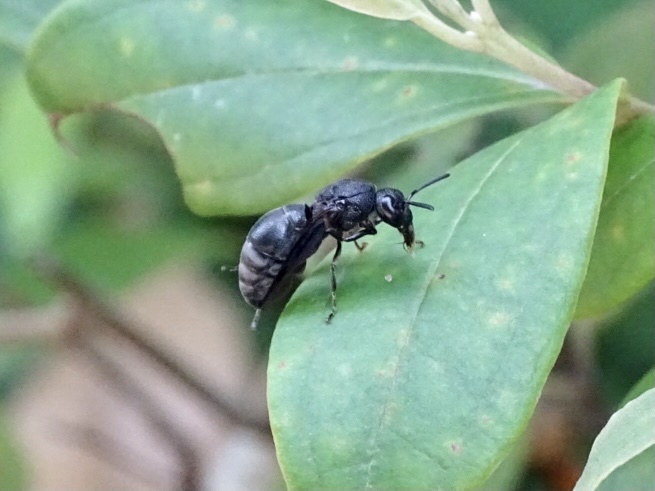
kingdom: Animalia
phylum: Arthropoda
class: Insecta
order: Hymenoptera
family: Eumenidae
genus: Orancistrocerus
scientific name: Orancistrocerus aterrimus
